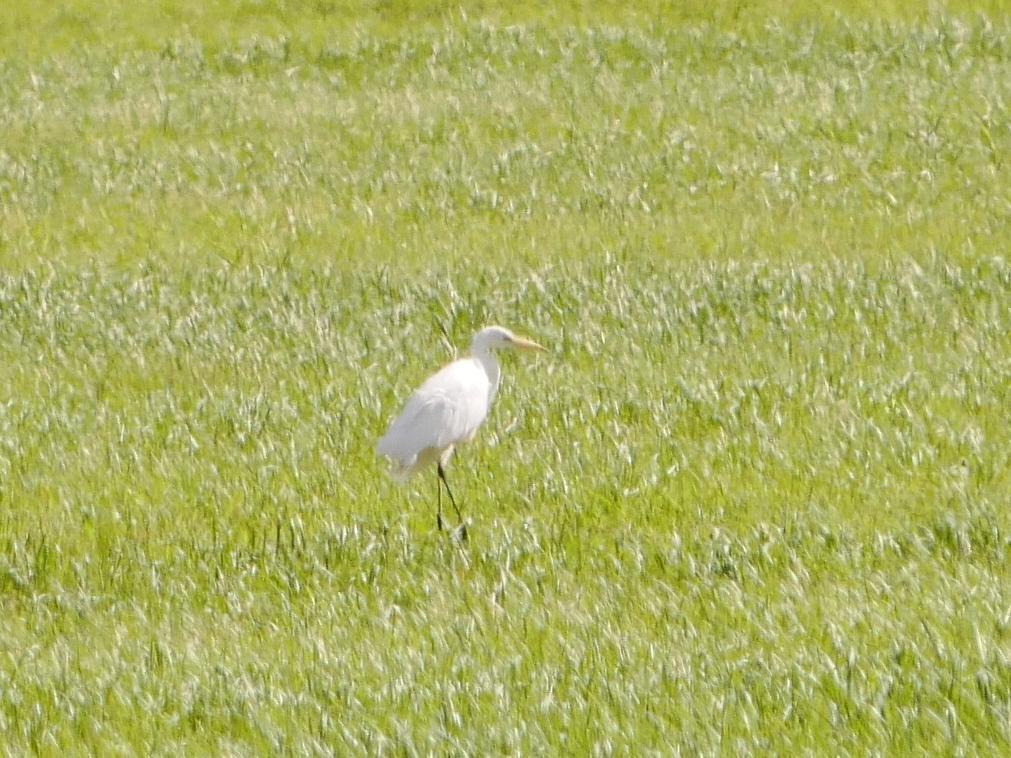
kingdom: Animalia
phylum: Chordata
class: Aves
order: Pelecaniformes
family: Ardeidae
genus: Ardea
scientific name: Ardea alba
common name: Great egret
